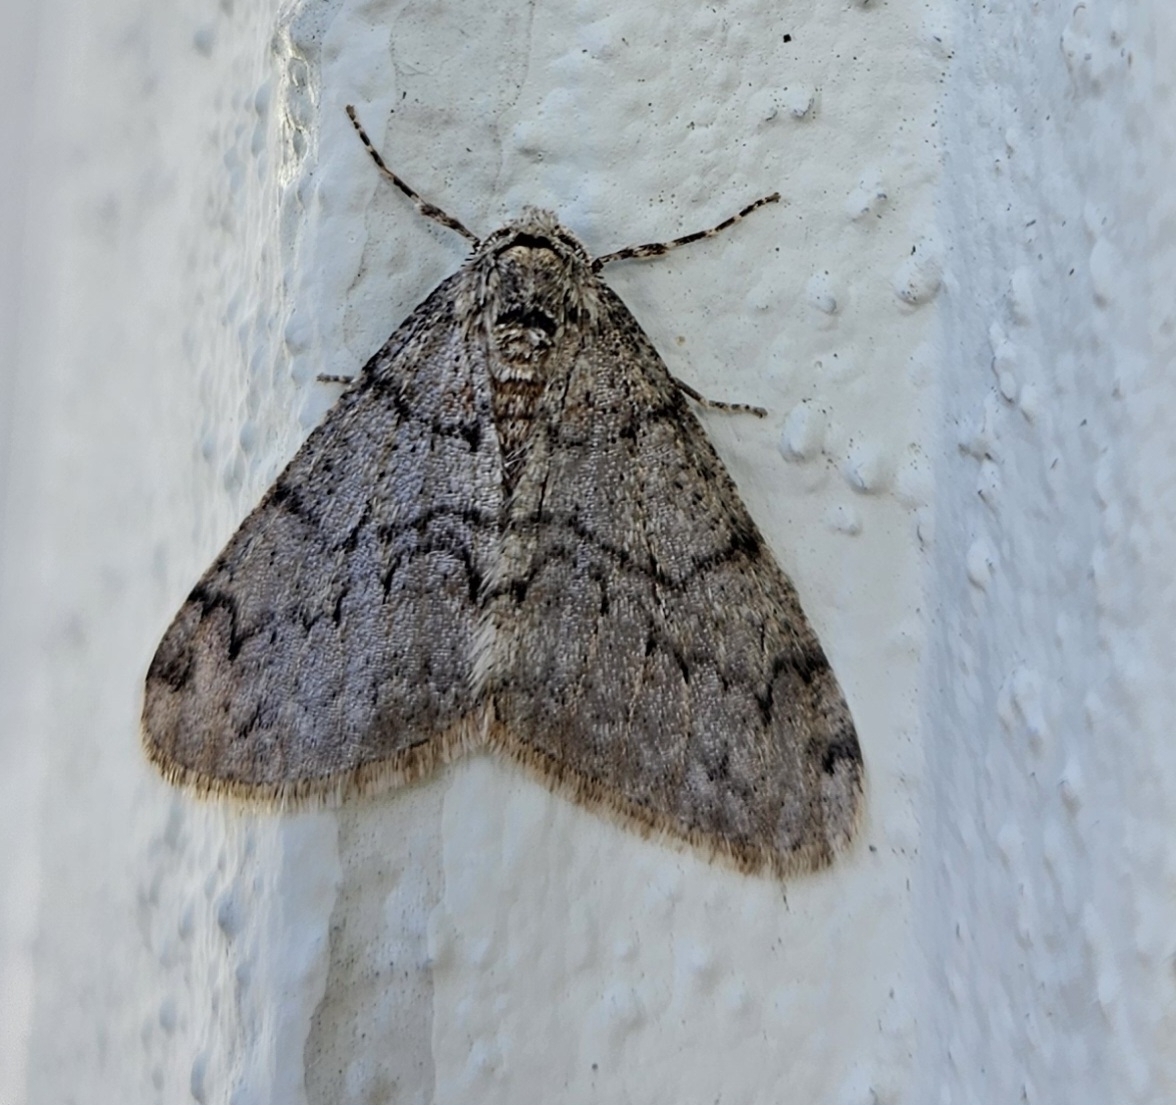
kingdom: Animalia
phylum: Arthropoda
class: Insecta
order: Lepidoptera
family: Geometridae
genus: Phigalia
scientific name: Phigalia strigataria
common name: Small phigalia
